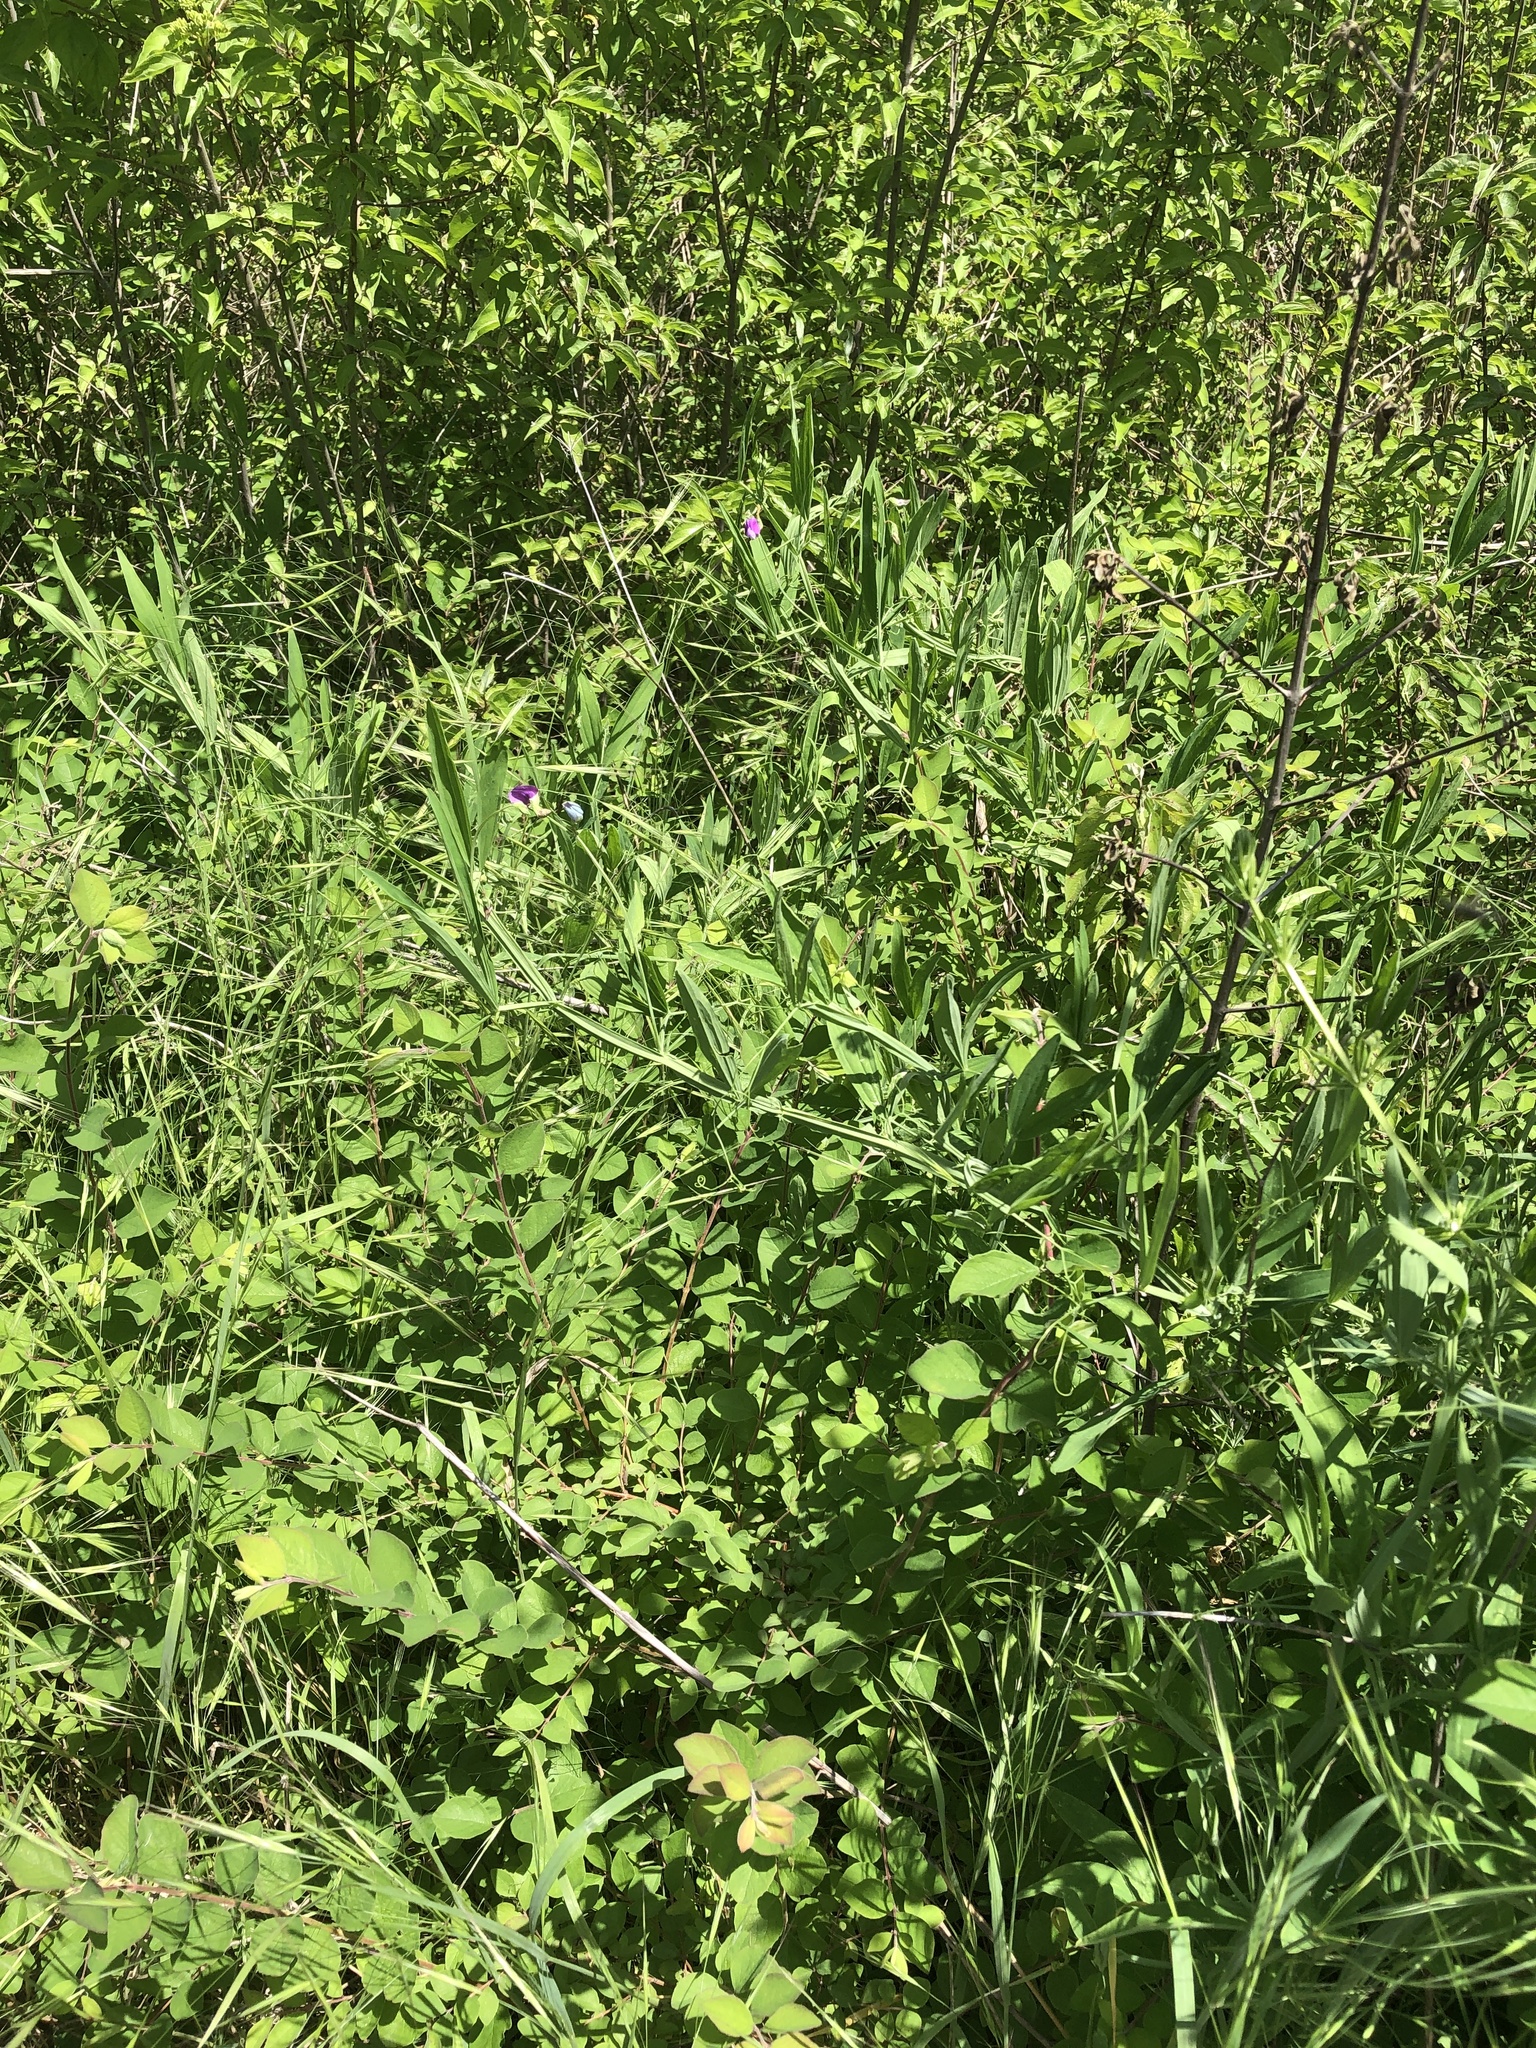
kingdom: Plantae
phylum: Tracheophyta
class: Magnoliopsida
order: Fabales
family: Fabaceae
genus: Lathyrus
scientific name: Lathyrus hirsutus
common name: Hairy vetchling
